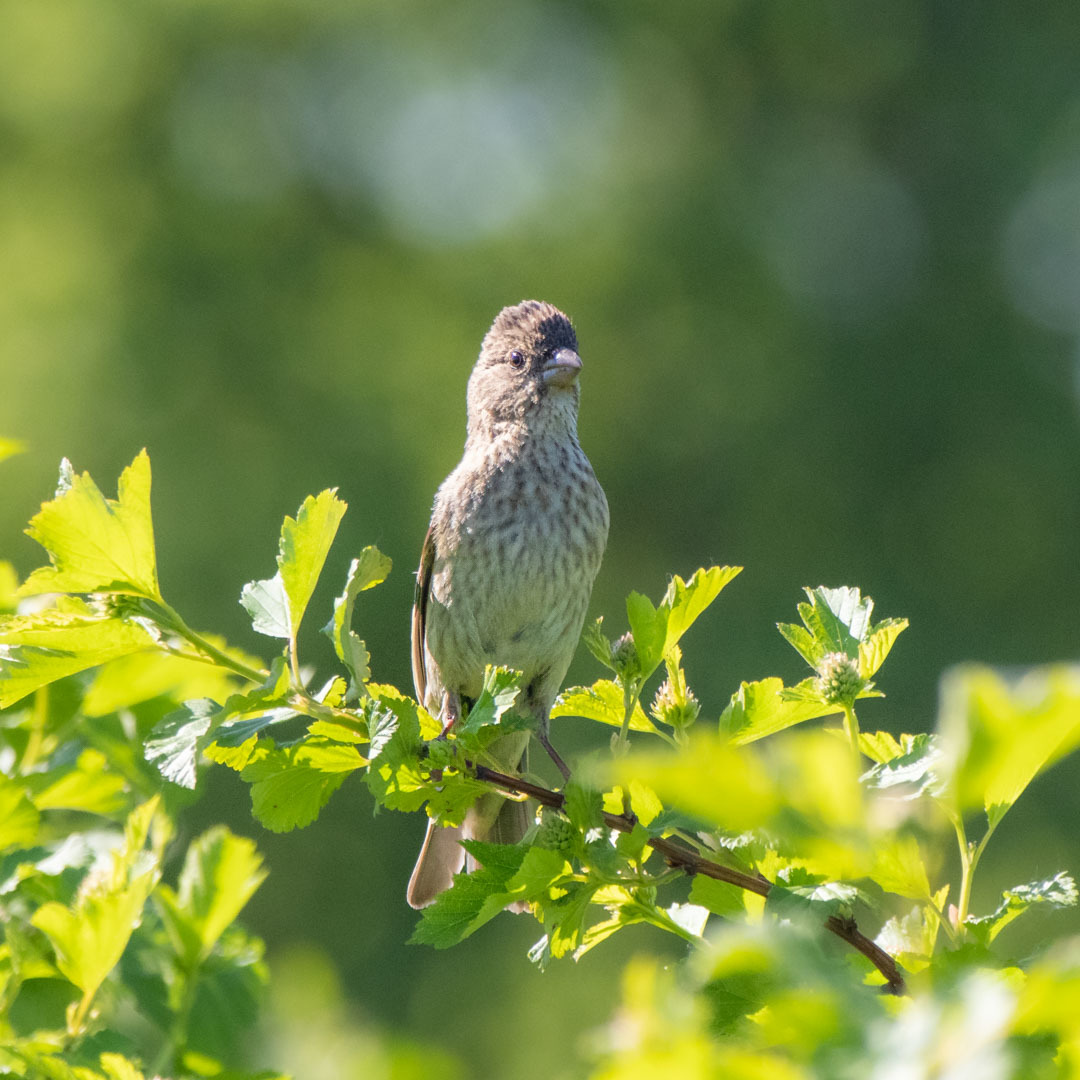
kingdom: Animalia
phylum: Chordata
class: Aves
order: Passeriformes
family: Fringillidae
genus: Carpodacus
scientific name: Carpodacus erythrinus
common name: Common rosefinch
